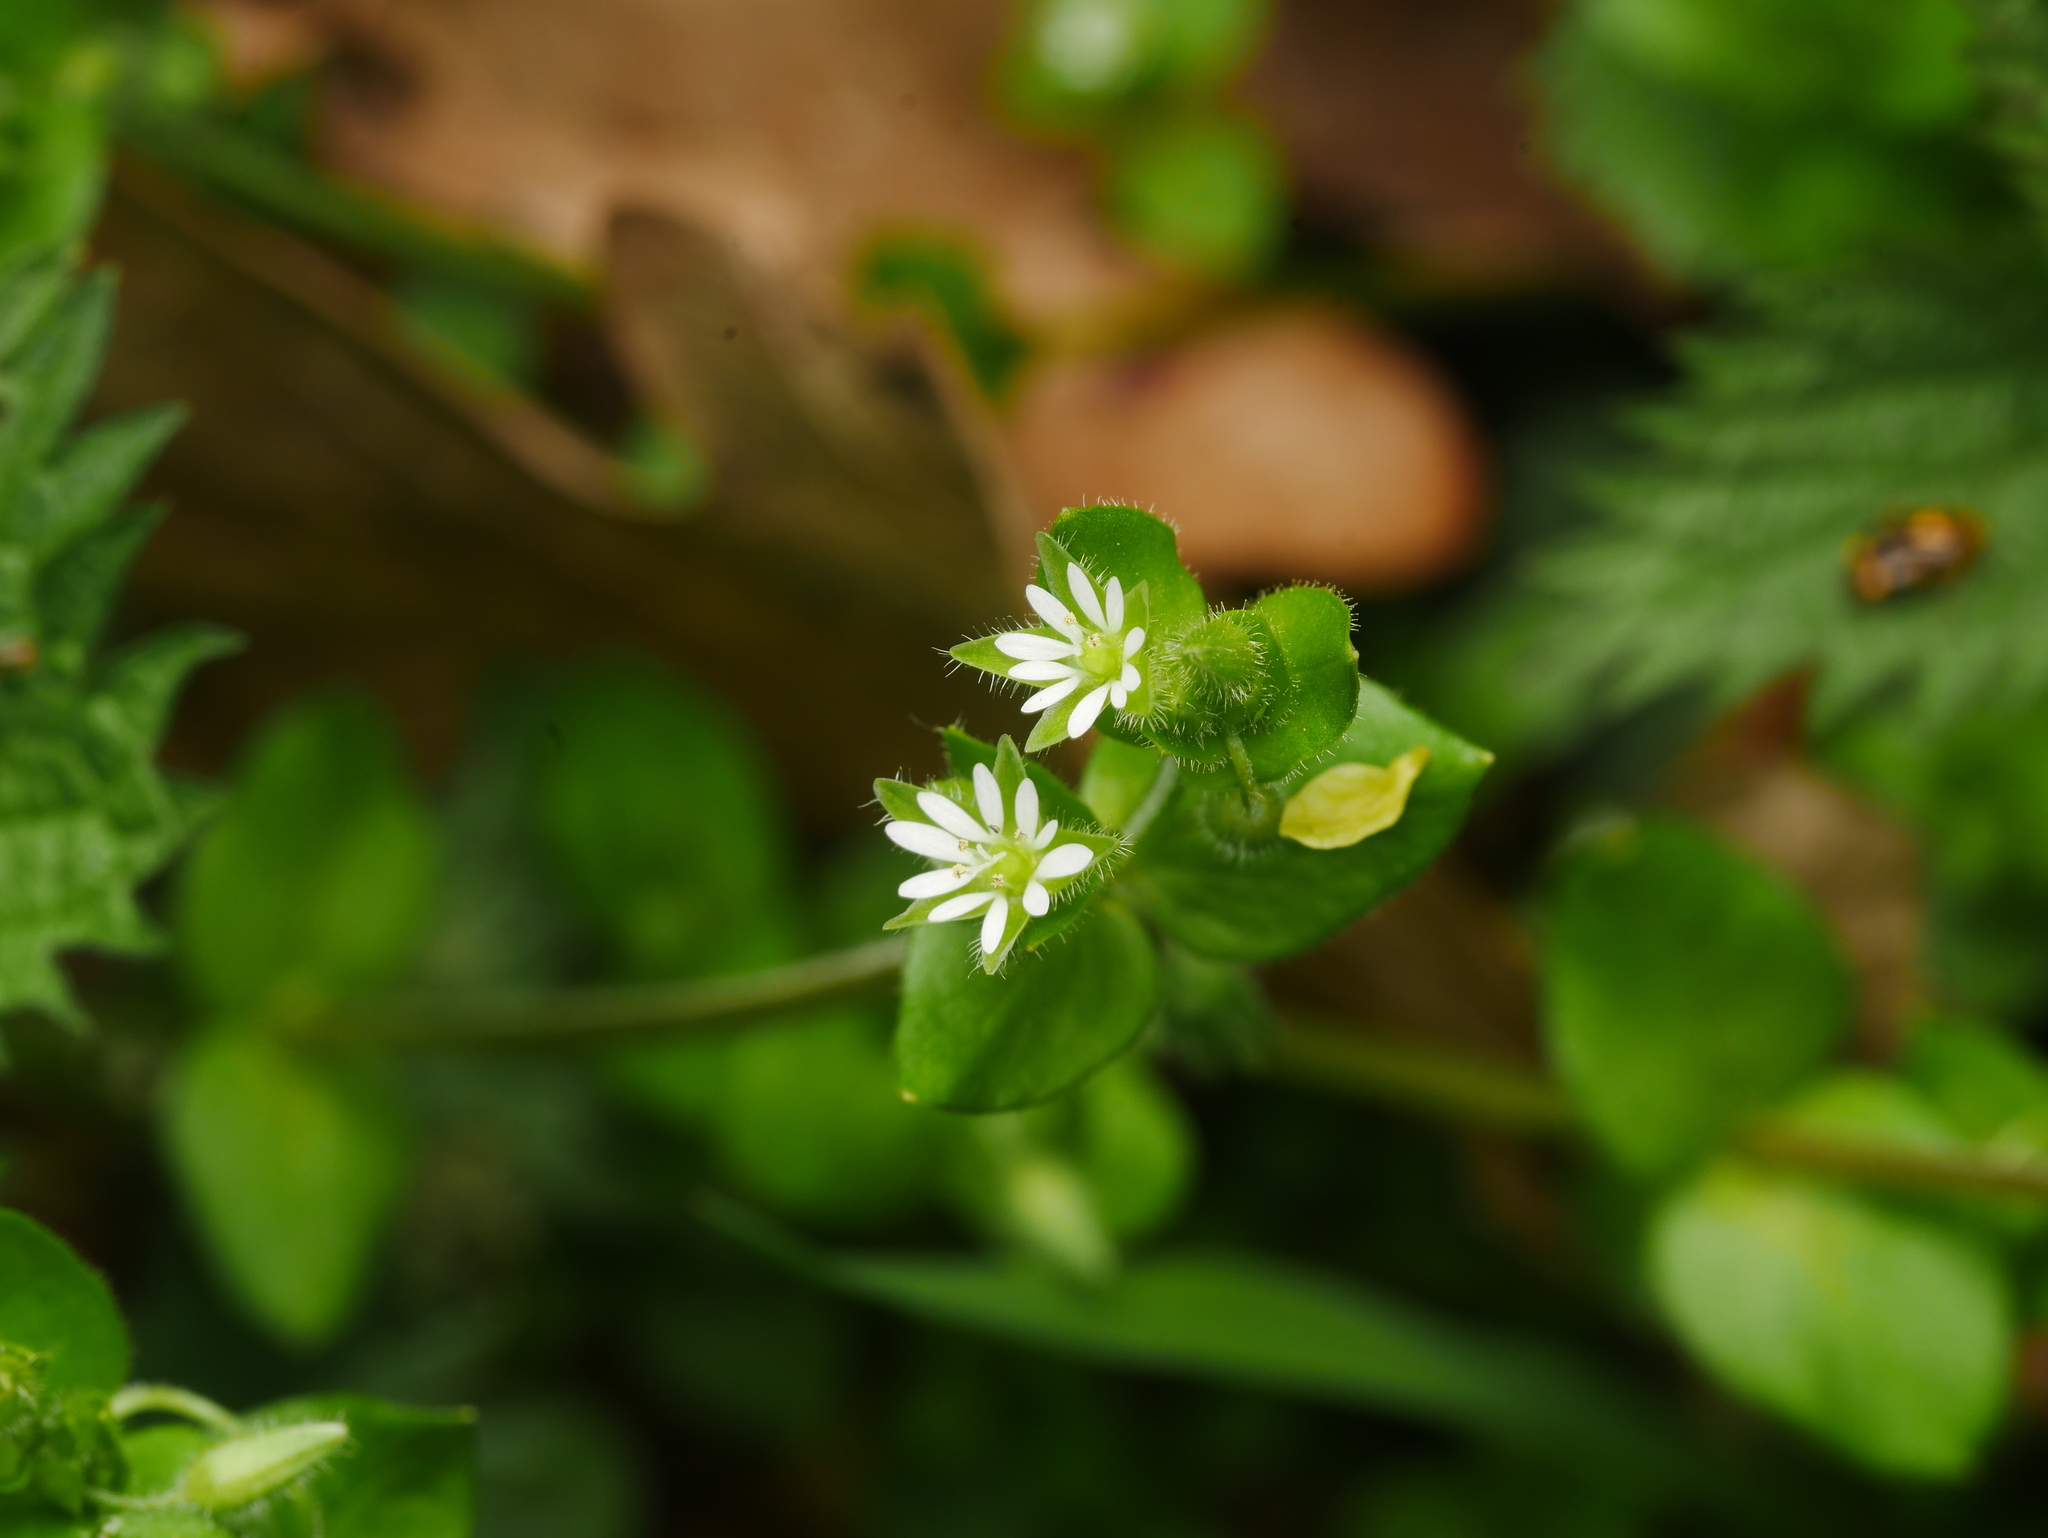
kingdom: Plantae
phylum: Tracheophyta
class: Magnoliopsida
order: Caryophyllales
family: Caryophyllaceae
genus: Stellaria
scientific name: Stellaria media
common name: Common chickweed
